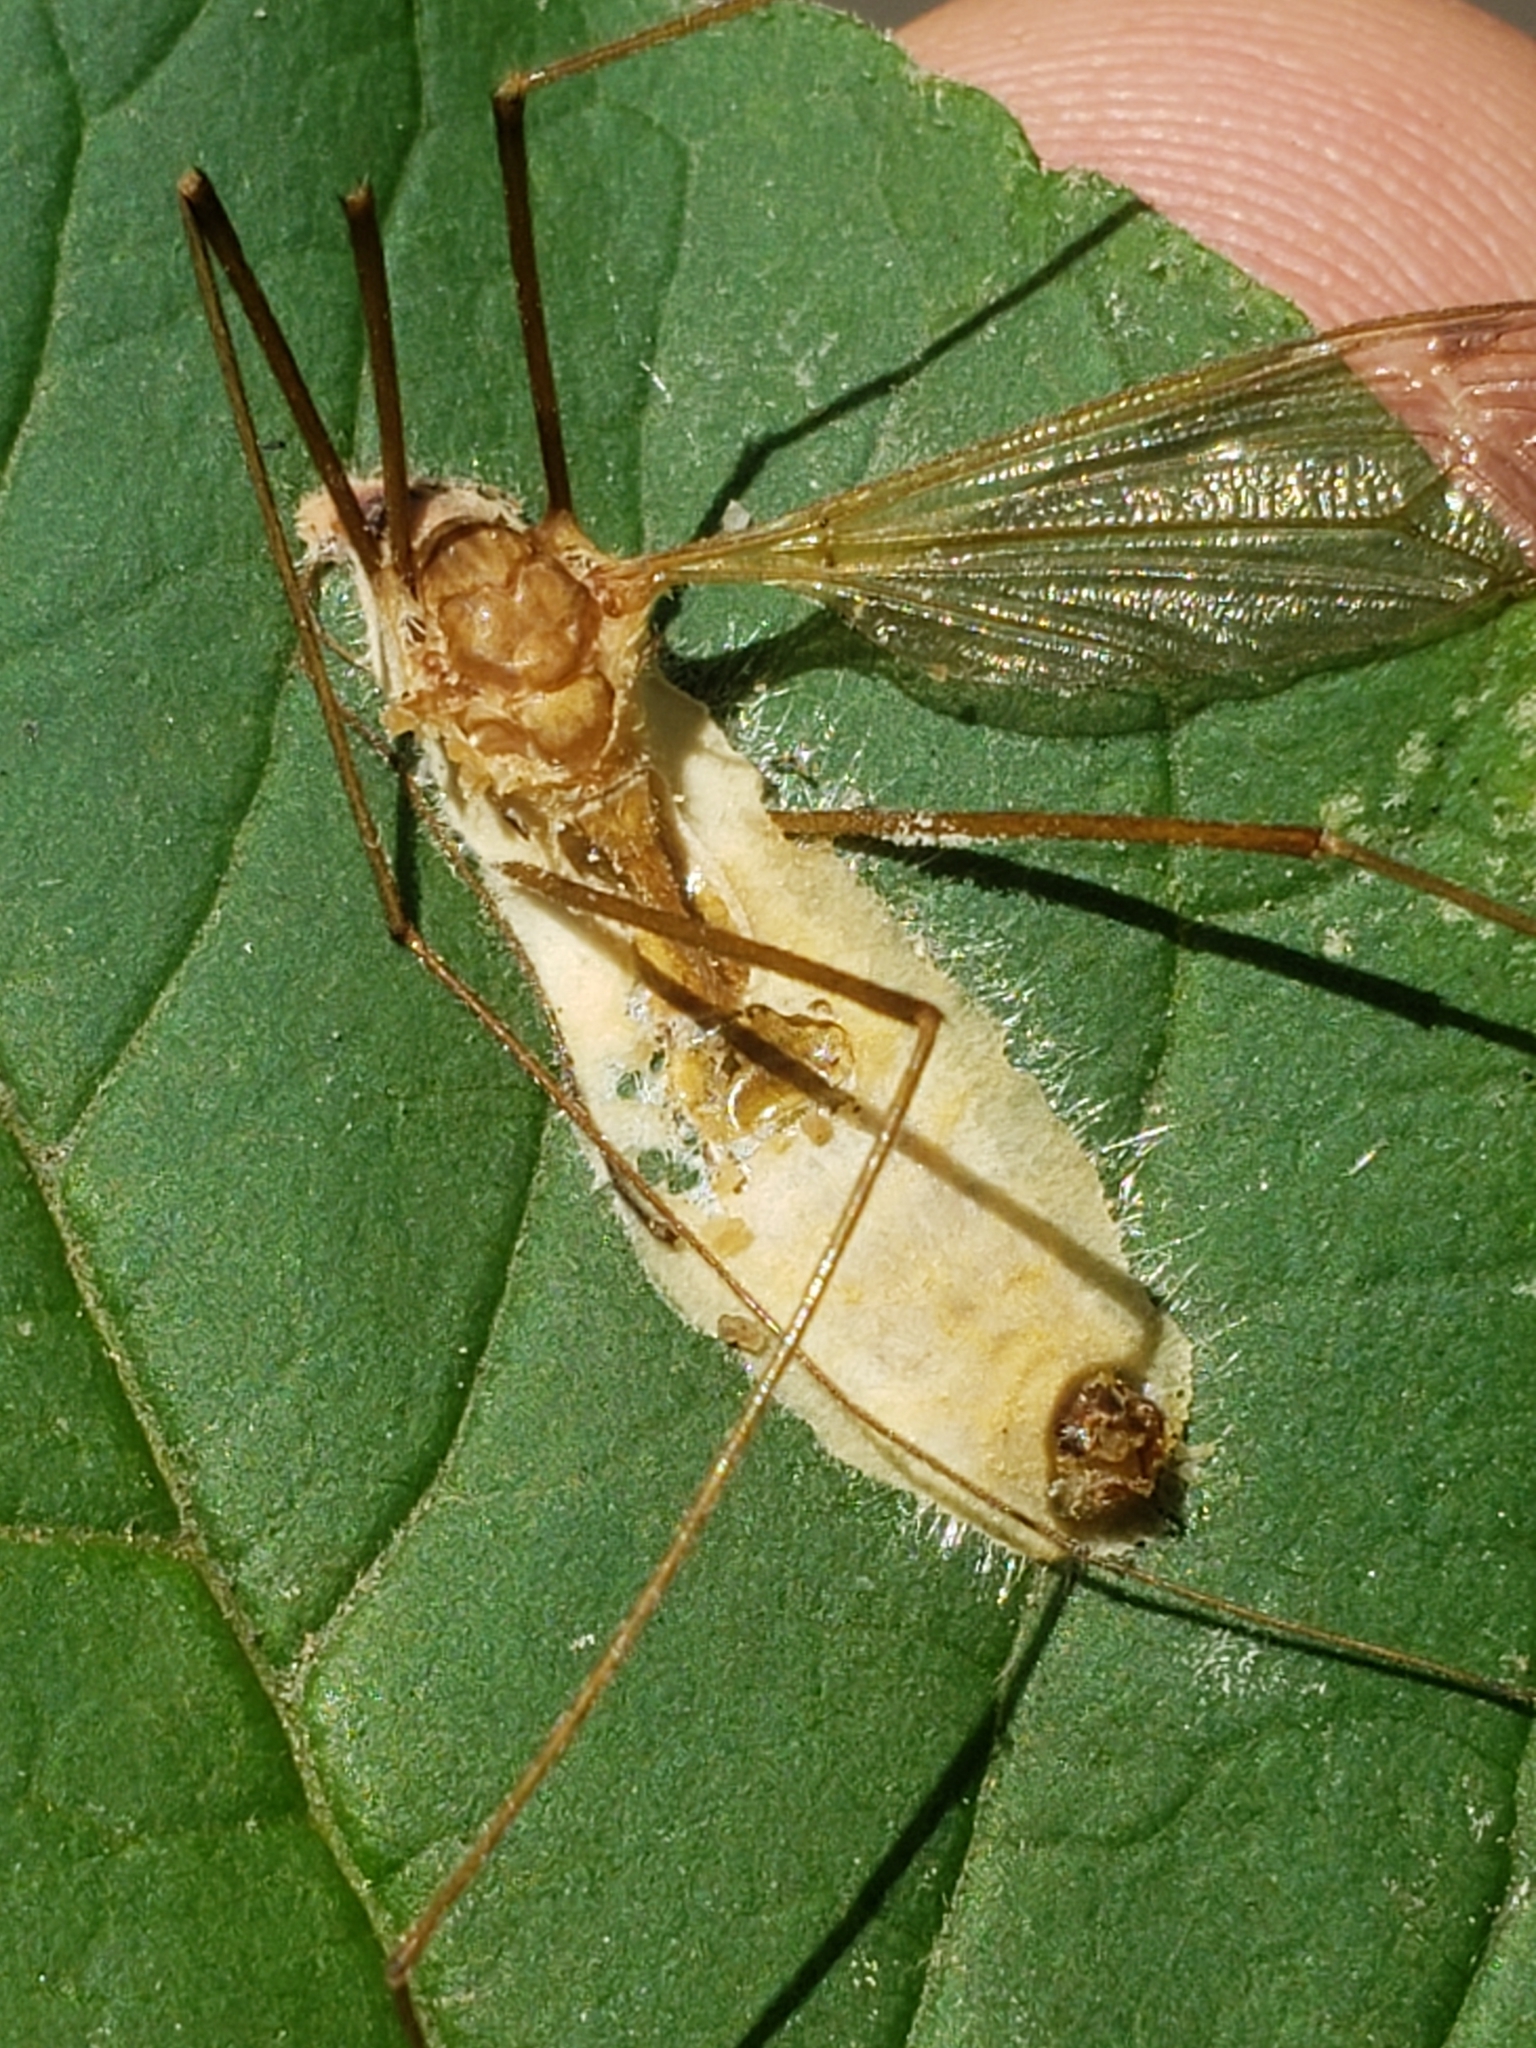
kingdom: Fungi
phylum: Entomophthoromycota
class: Entomophthoromycetes
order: Entomophthorales
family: Entomophthoraceae
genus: Erynia
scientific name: Erynia sepulchralis
